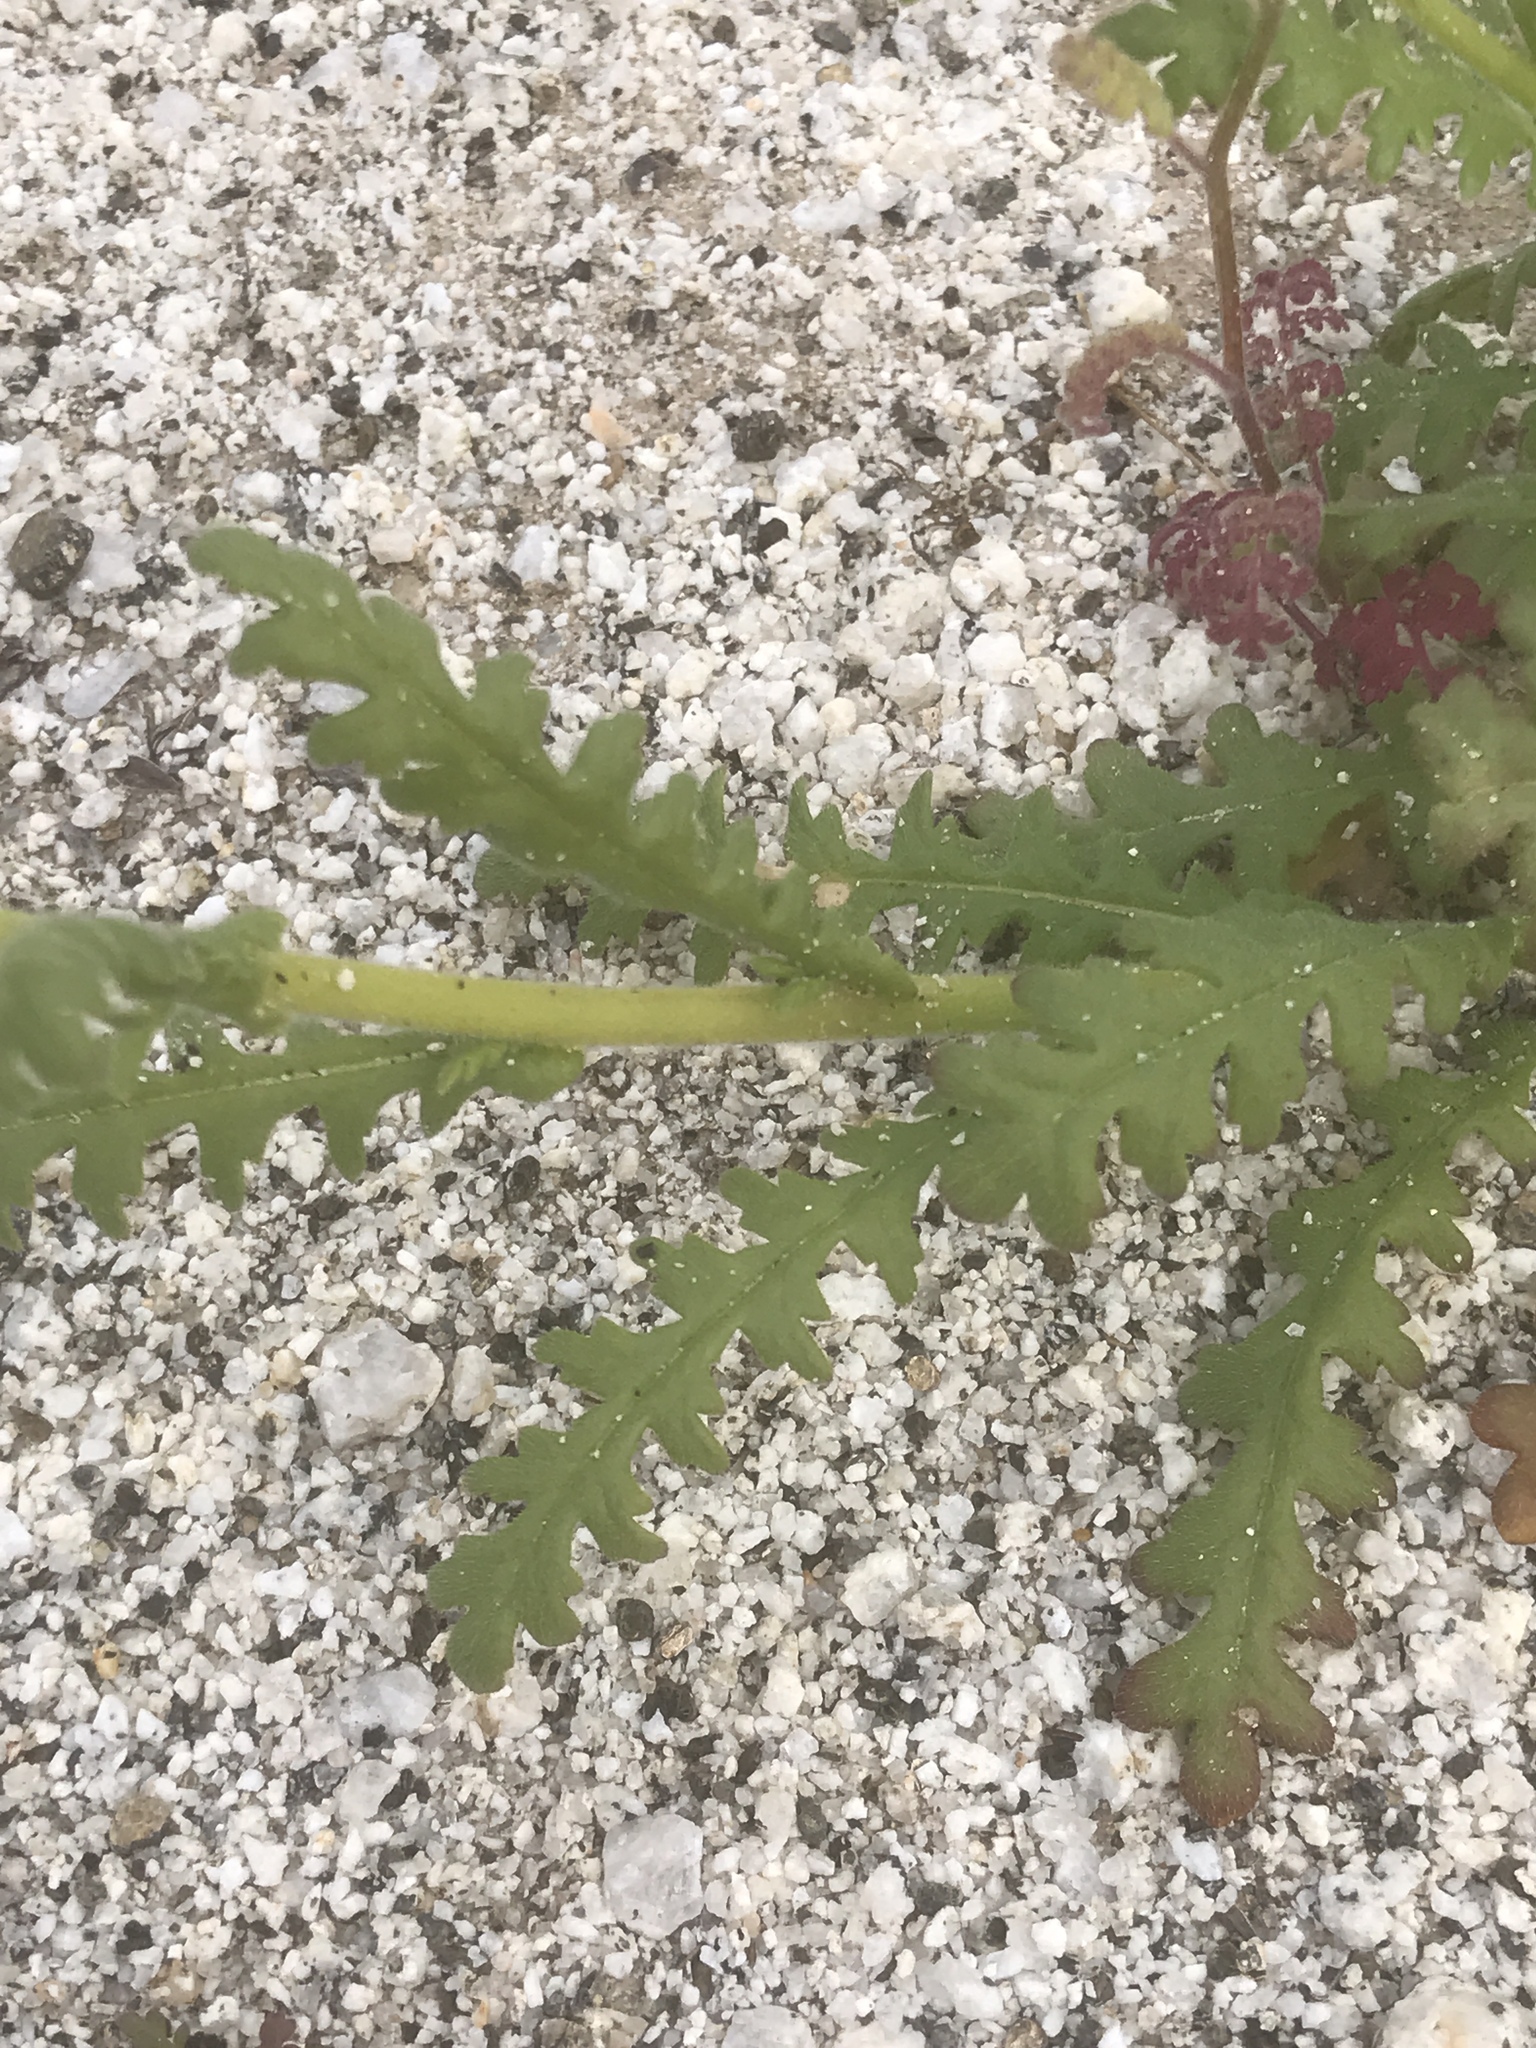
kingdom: Plantae
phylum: Tracheophyta
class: Magnoliopsida
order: Boraginales
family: Hydrophyllaceae
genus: Emmenanthe
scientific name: Emmenanthe penduliflora
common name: Whispering-bells
